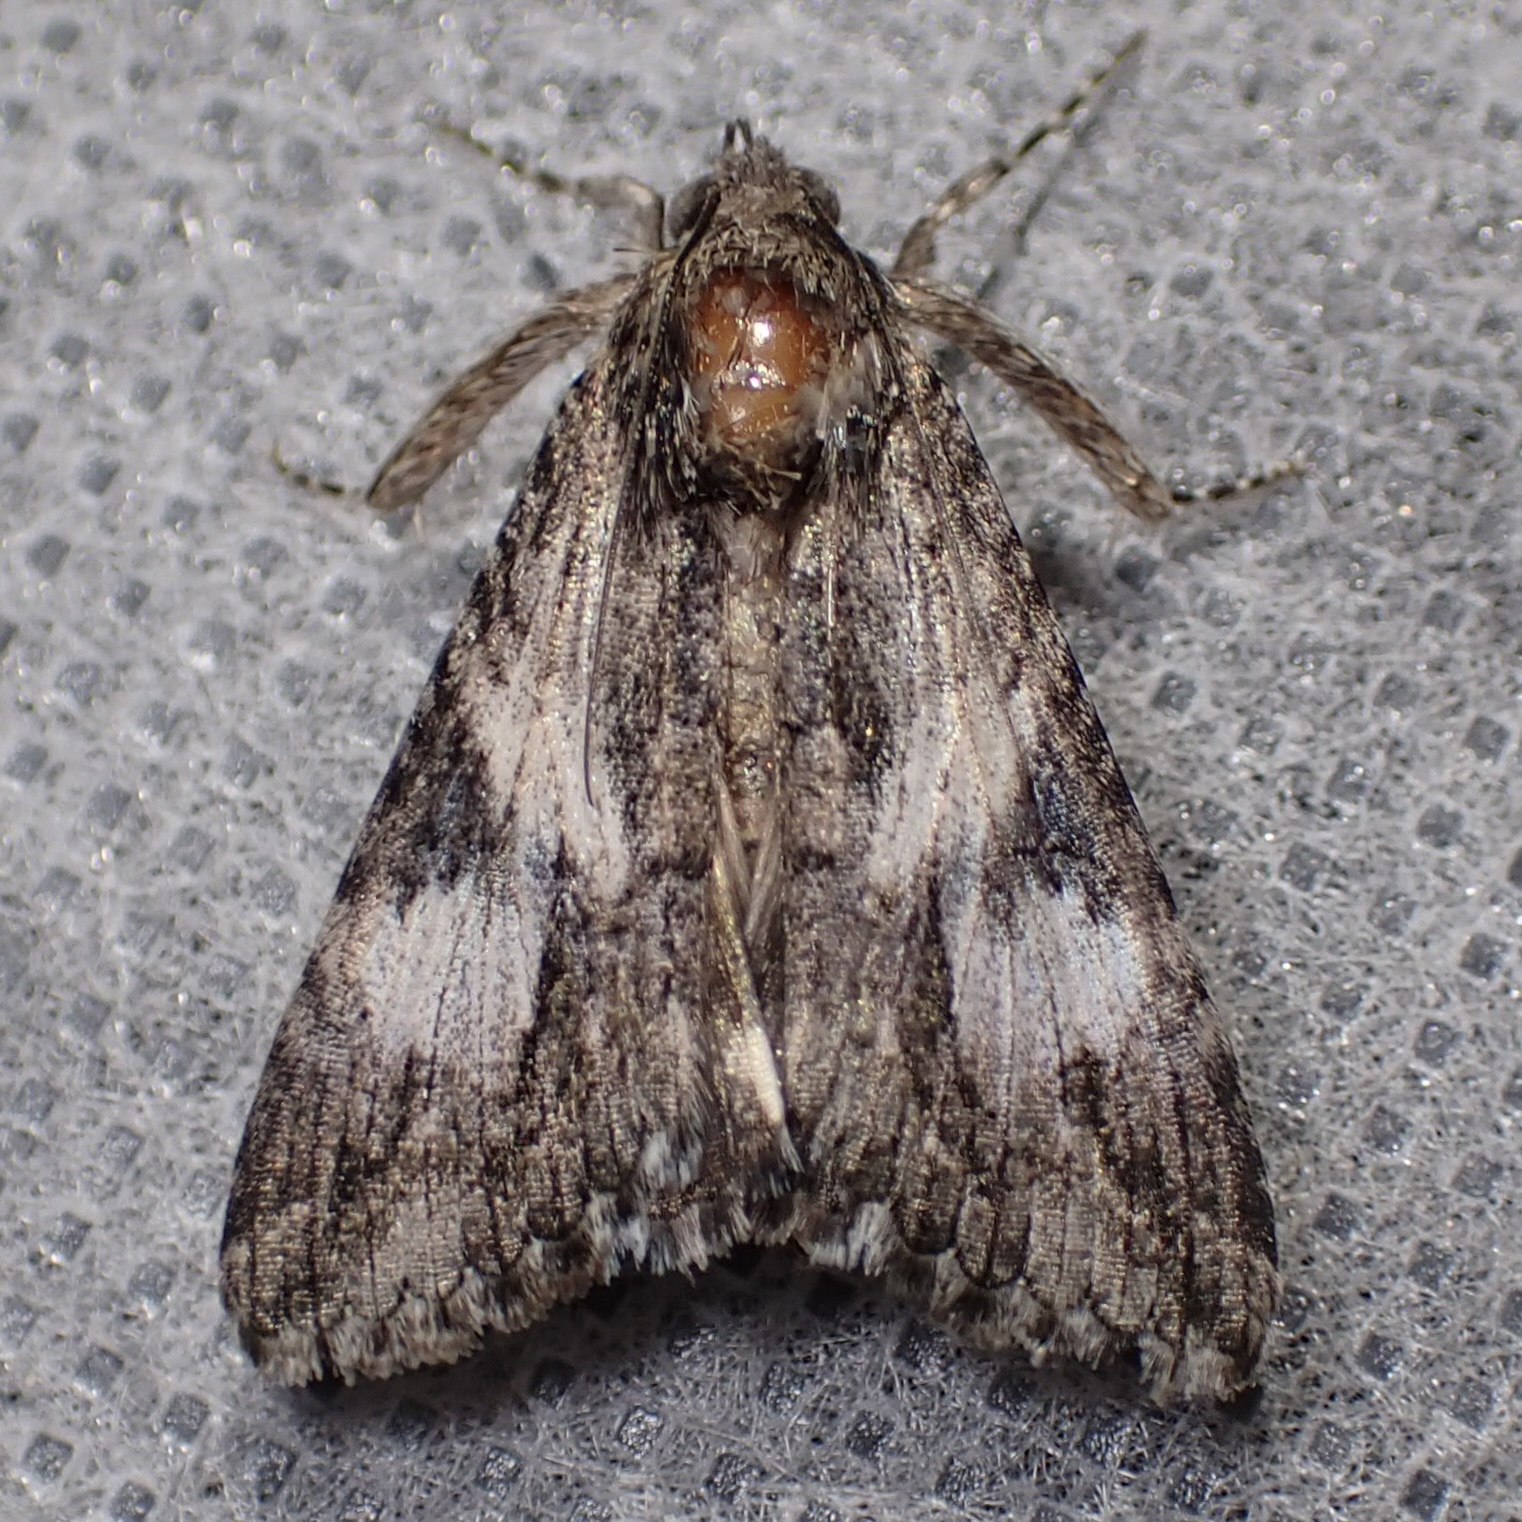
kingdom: Animalia
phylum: Arthropoda
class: Insecta
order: Lepidoptera
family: Erebidae
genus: Melipotis
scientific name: Melipotis jucunda
